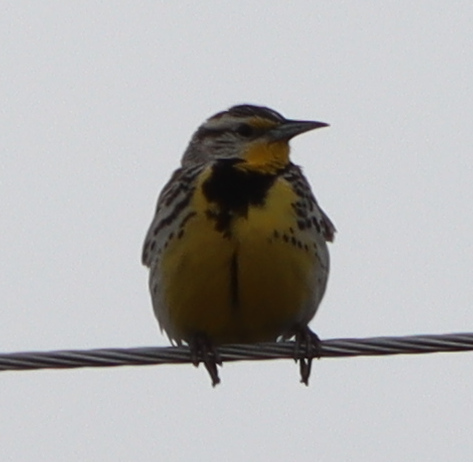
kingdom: Animalia
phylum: Chordata
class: Aves
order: Passeriformes
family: Icteridae
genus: Sturnella
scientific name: Sturnella neglecta
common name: Western meadowlark
